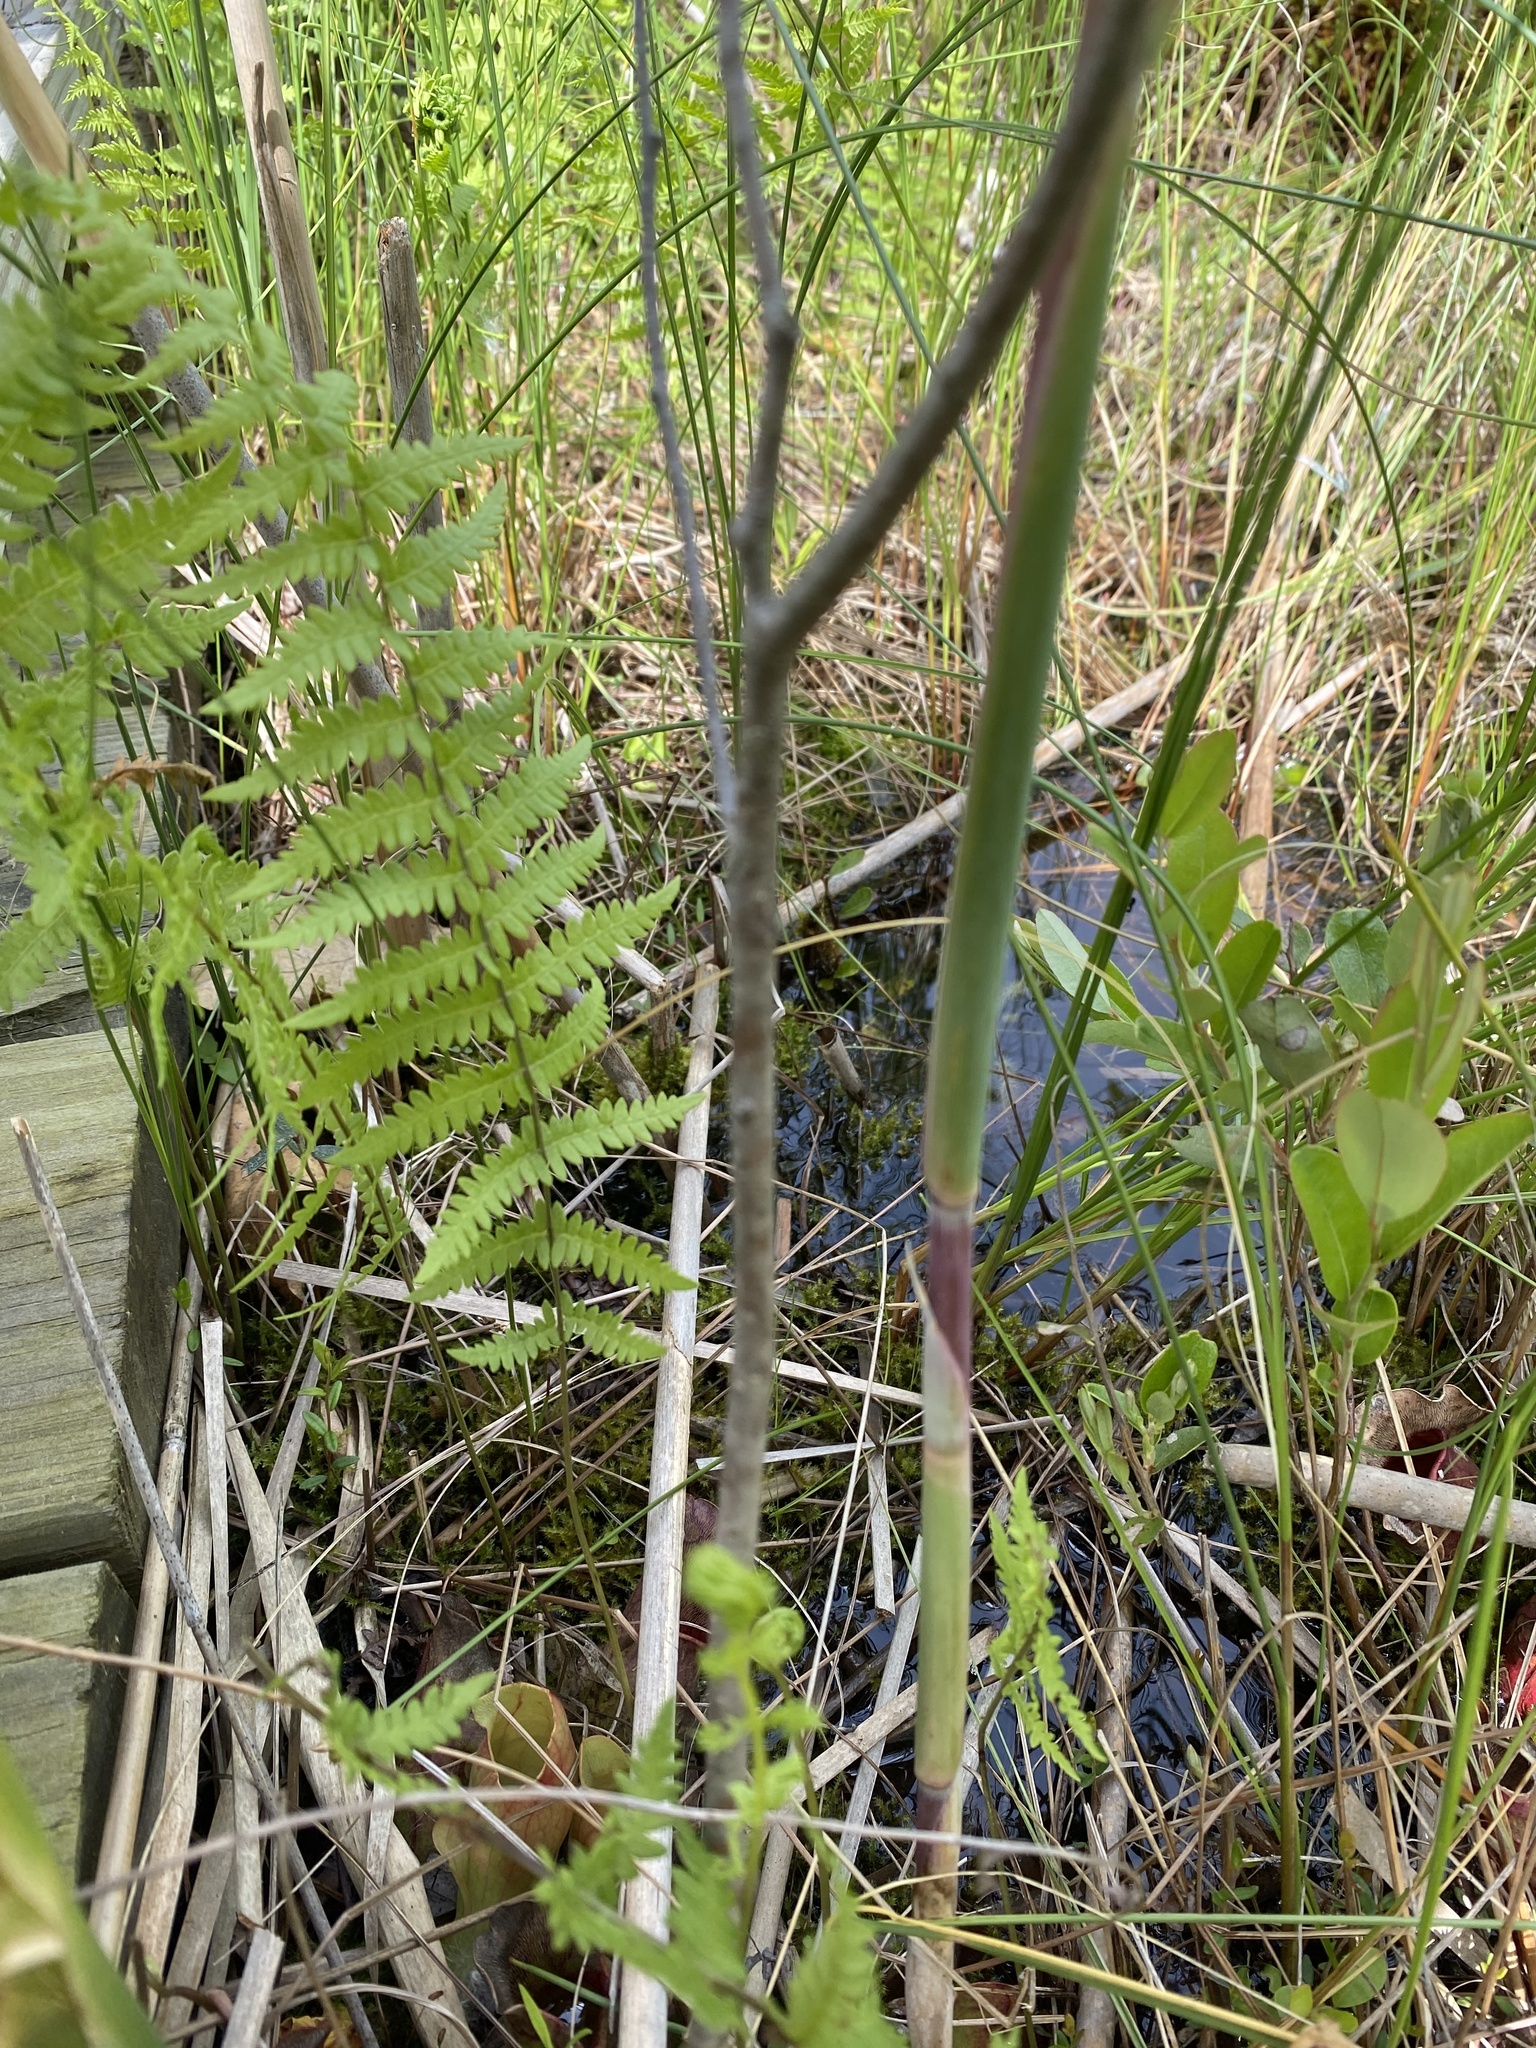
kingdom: Plantae
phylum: Tracheophyta
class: Liliopsida
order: Poales
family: Poaceae
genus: Phragmites
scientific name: Phragmites australis
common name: Common reed
